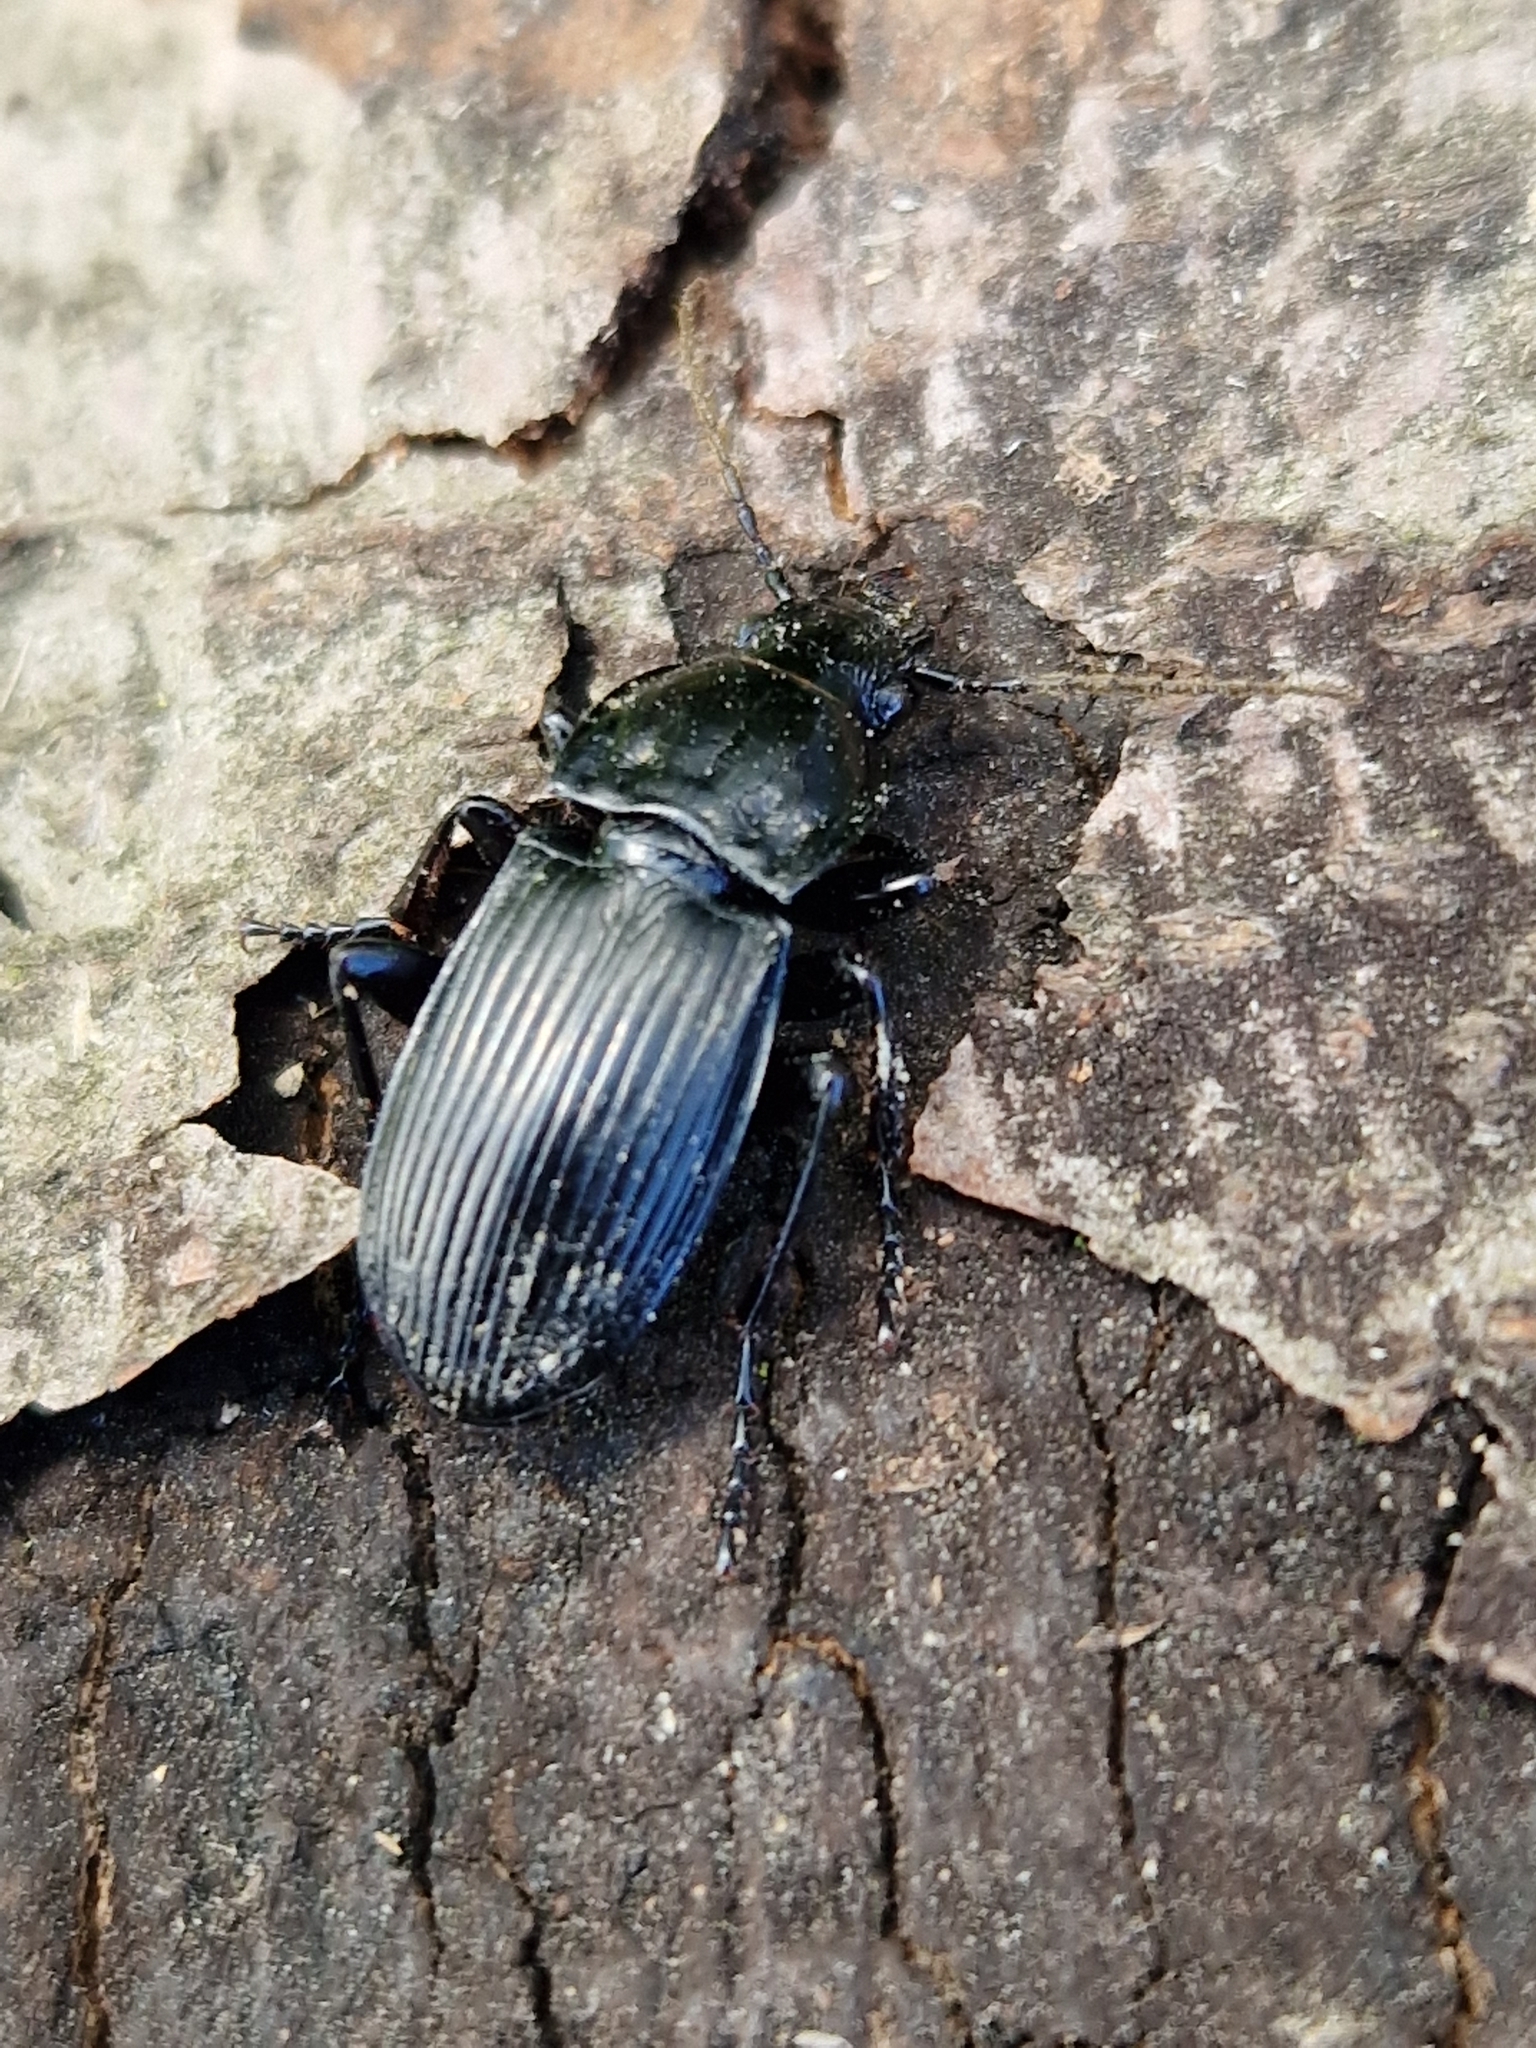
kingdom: Animalia
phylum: Arthropoda
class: Insecta
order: Coleoptera
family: Carabidae
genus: Abax
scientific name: Abax parallelepipedus
